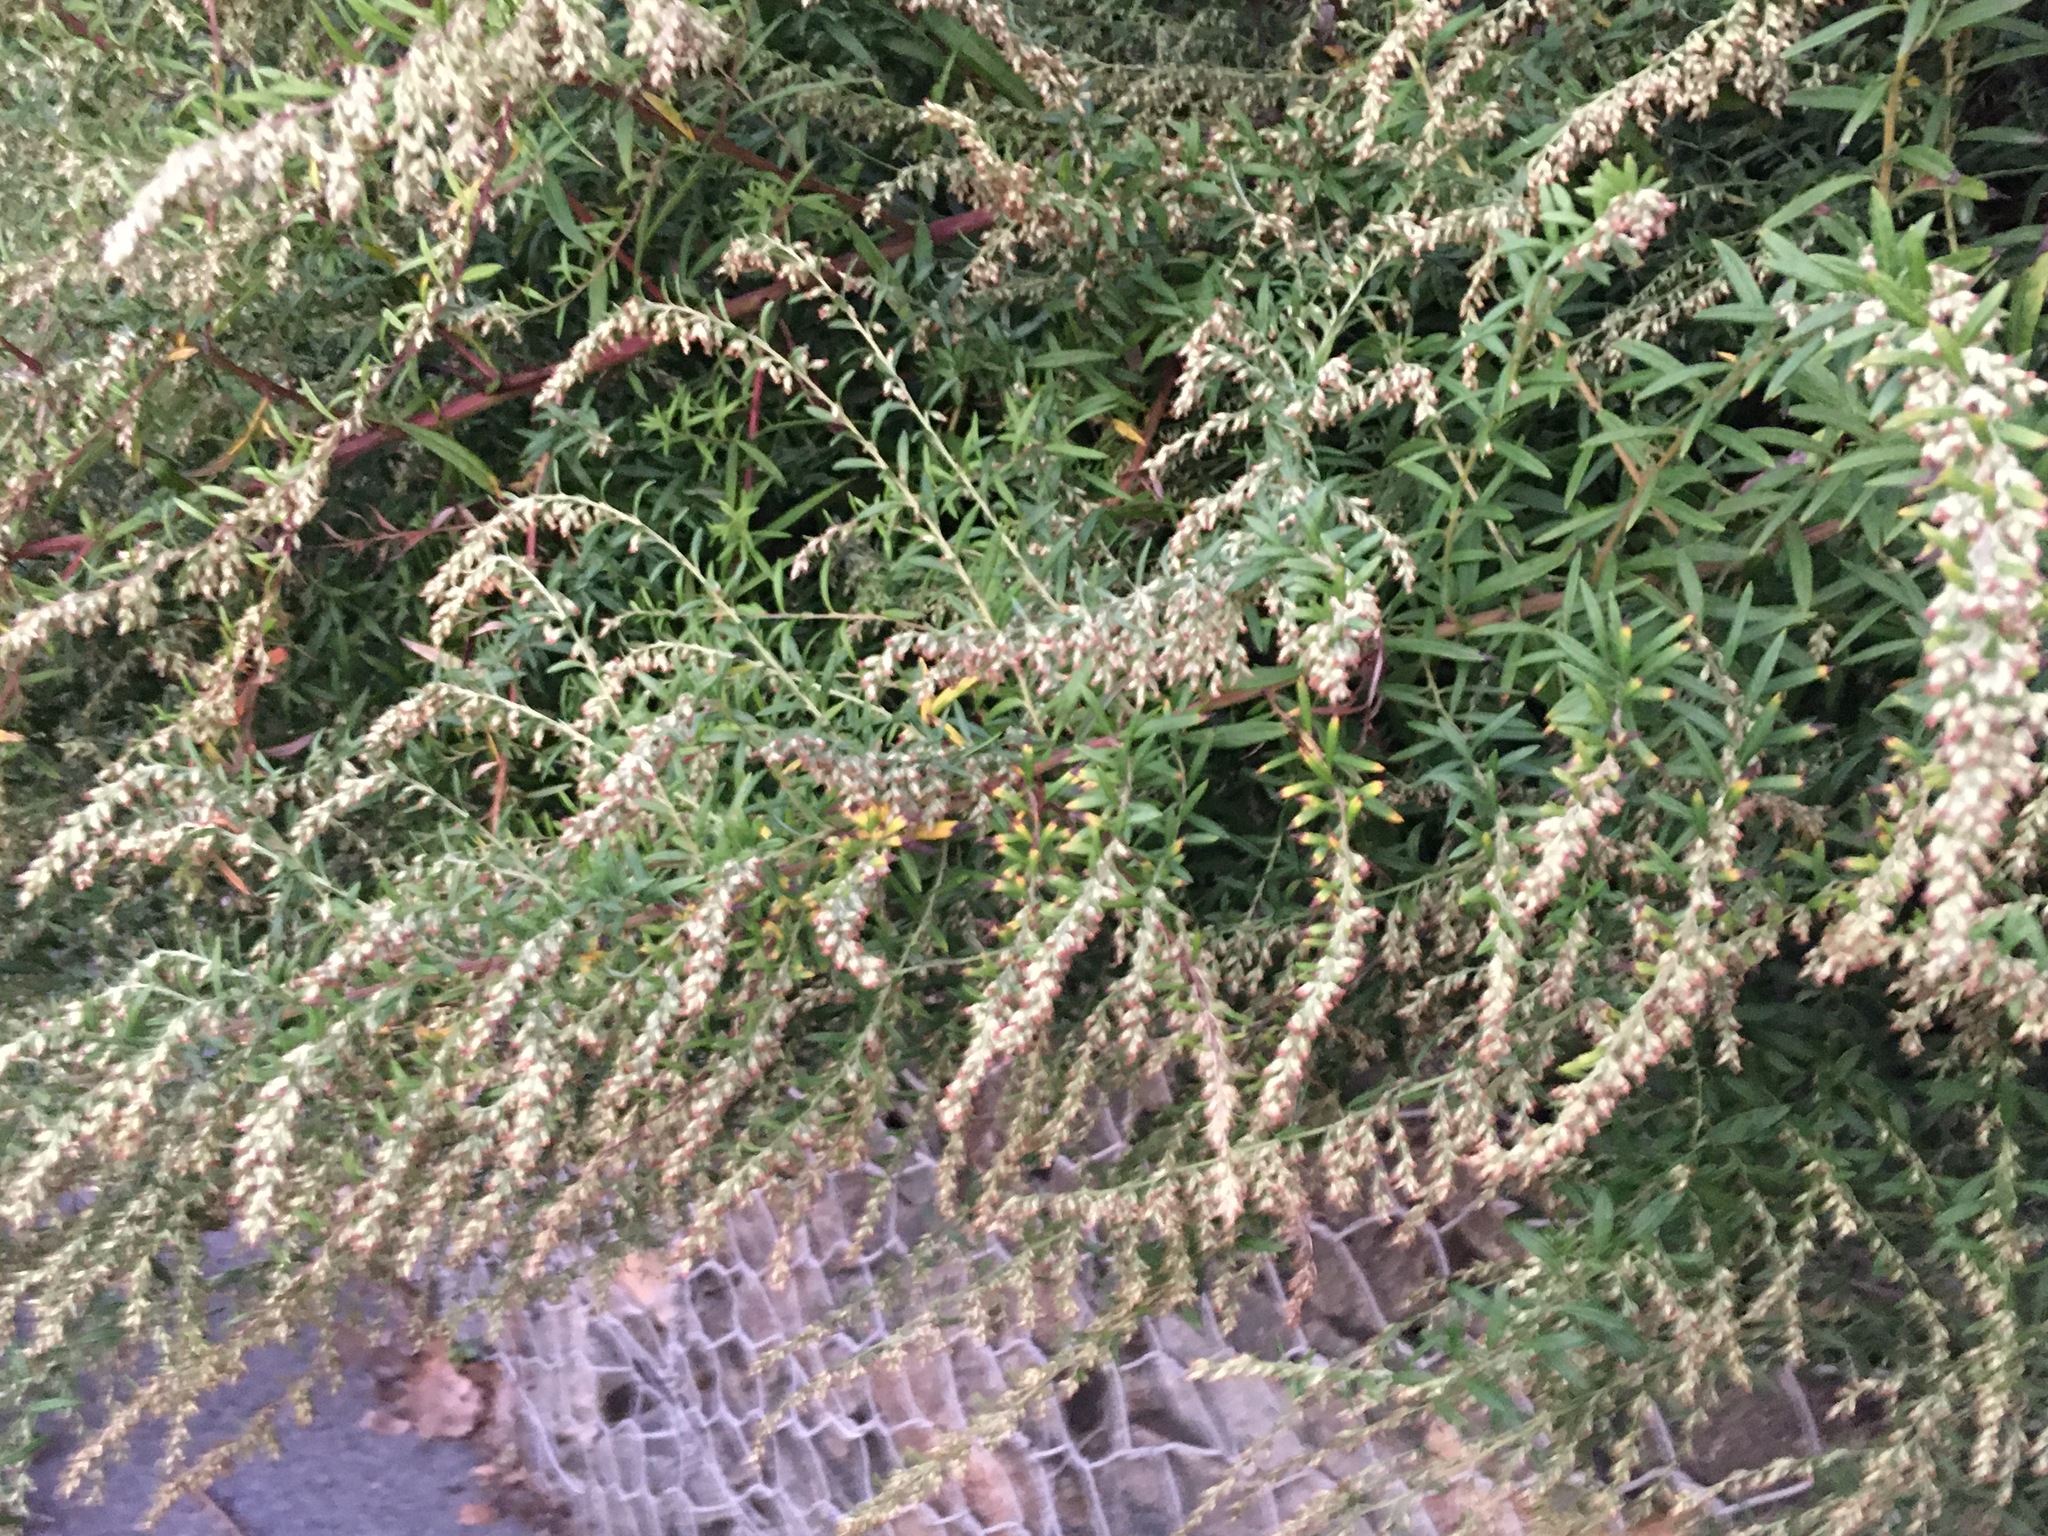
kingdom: Plantae
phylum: Tracheophyta
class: Magnoliopsida
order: Asterales
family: Asteraceae
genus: Artemisia
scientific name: Artemisia vulgaris
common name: Mugwort
